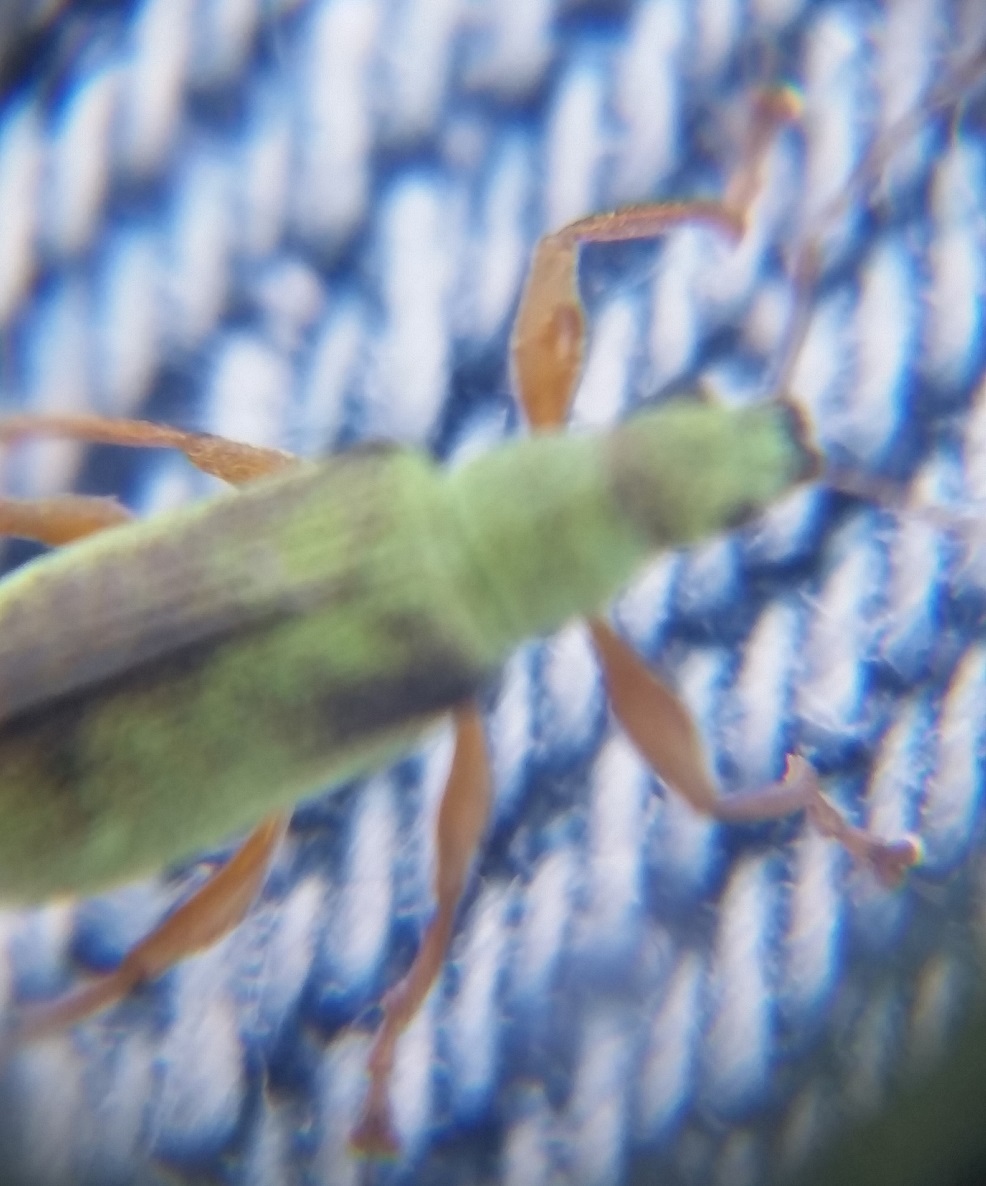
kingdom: Animalia
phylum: Arthropoda
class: Insecta
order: Coleoptera
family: Curculionidae
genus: Polydrusus
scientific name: Polydrusus impressifrons
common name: Weevil
